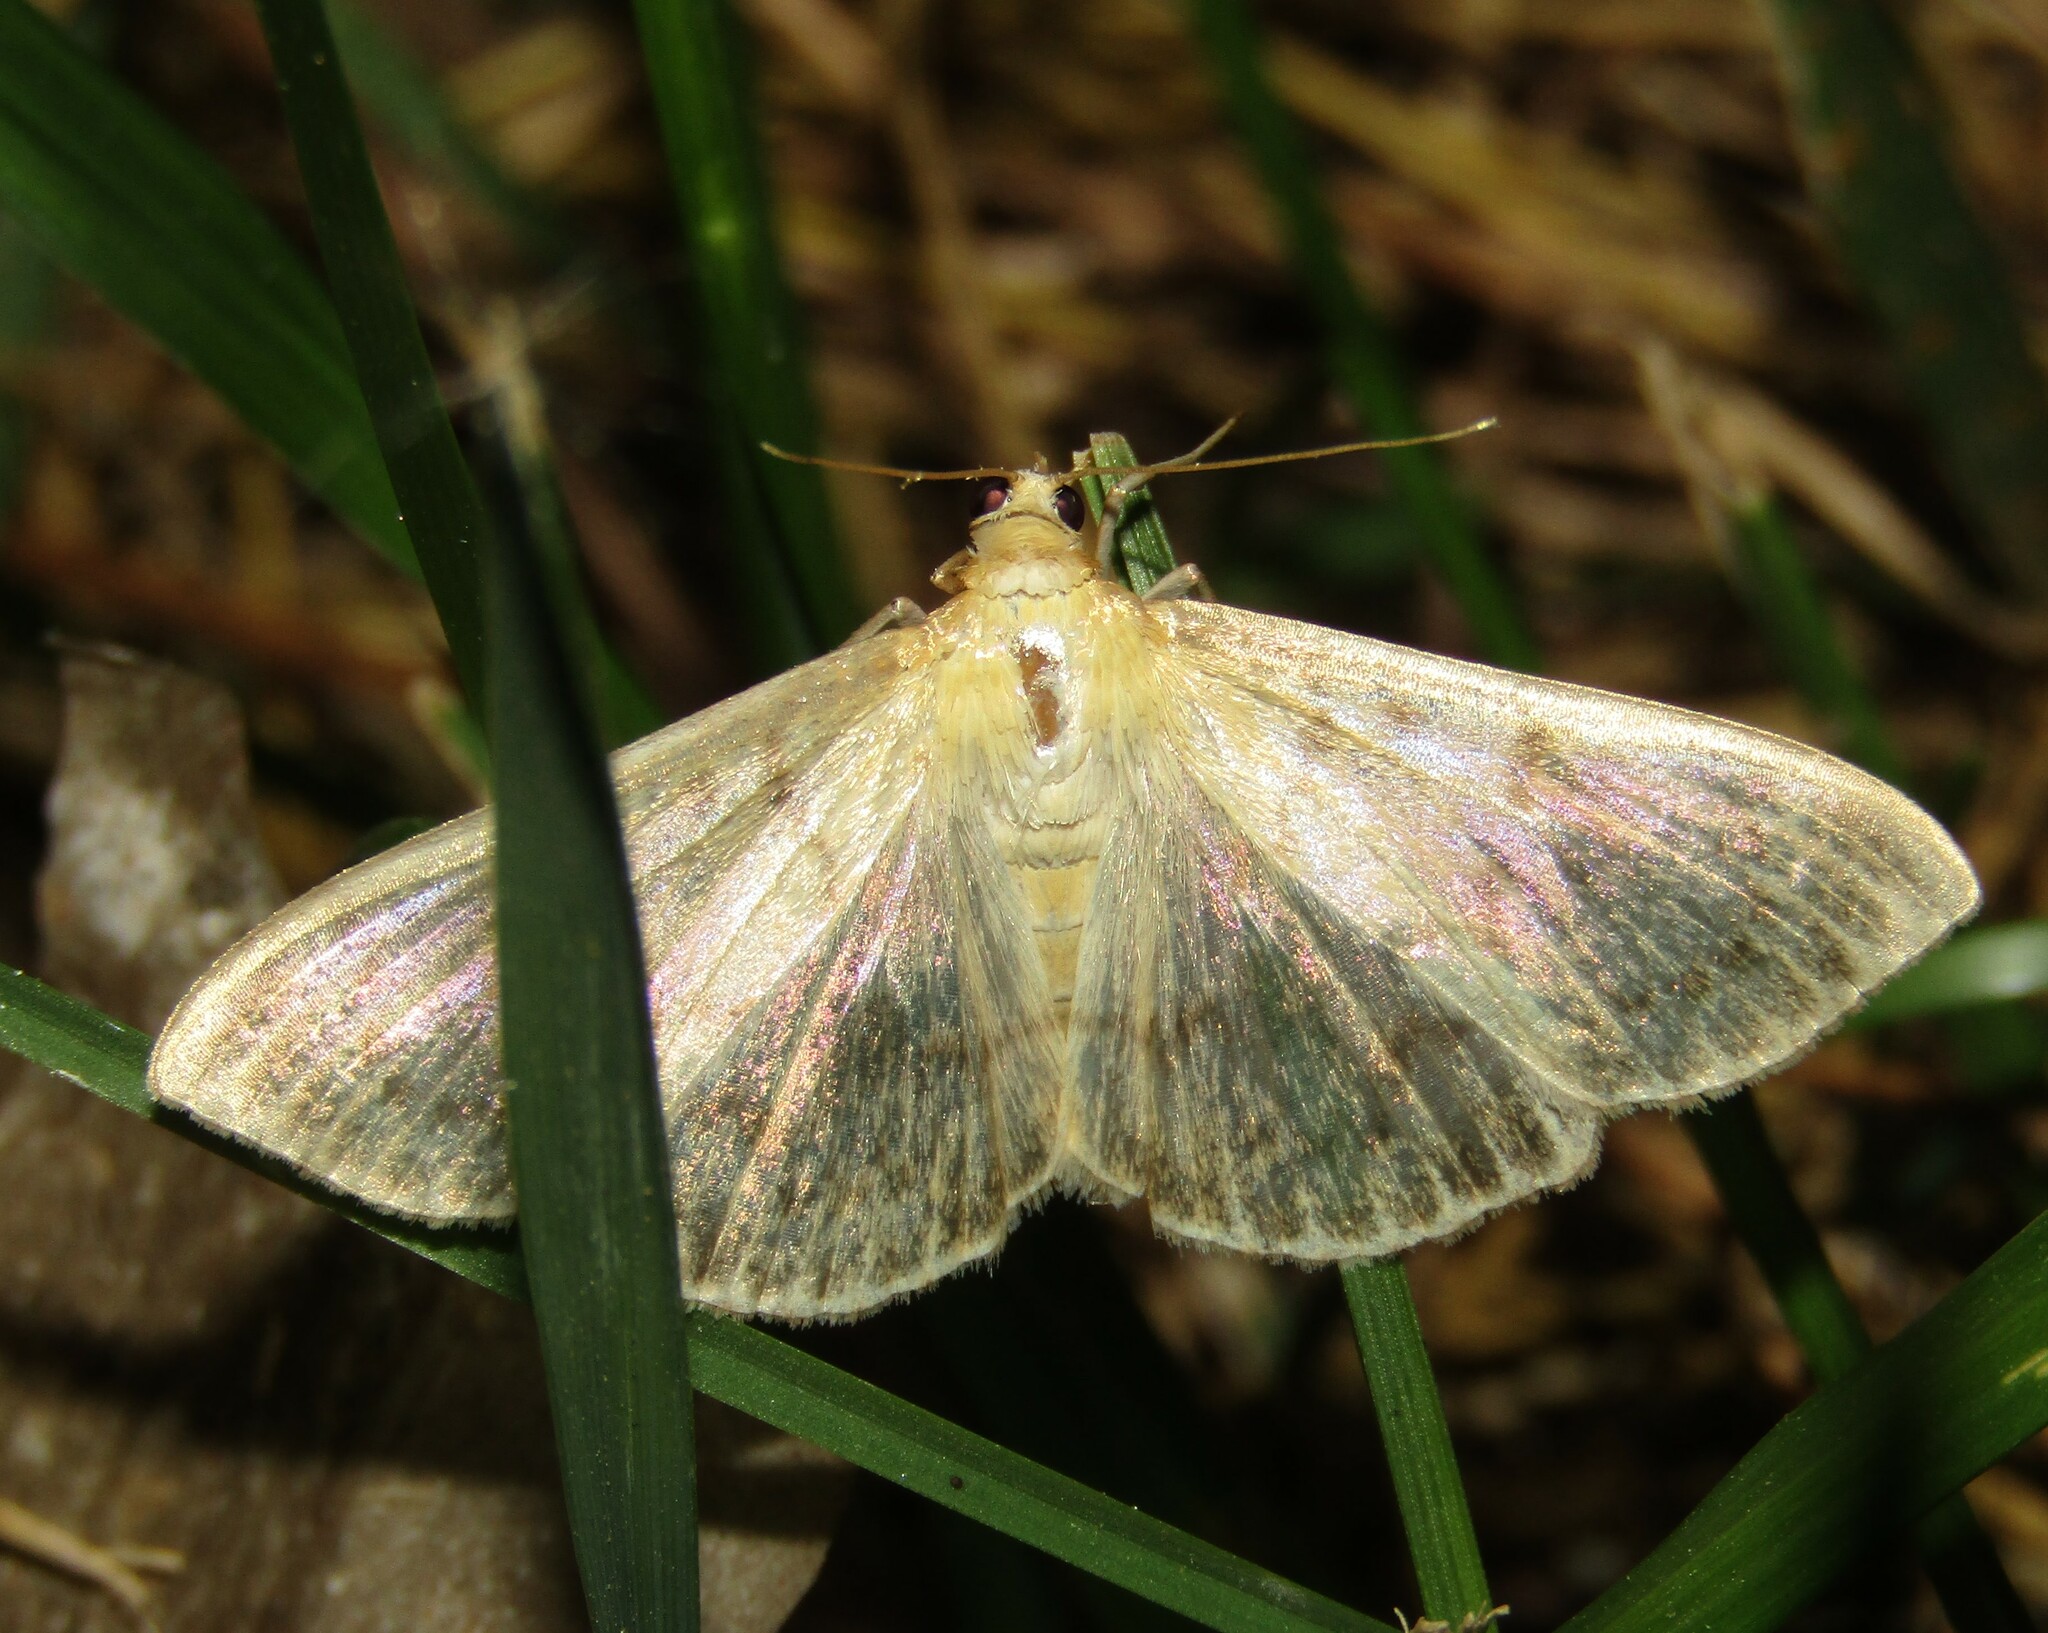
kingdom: Animalia
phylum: Arthropoda
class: Insecta
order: Lepidoptera
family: Crambidae
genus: Patania
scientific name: Patania ruralis
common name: Mother of pearl
